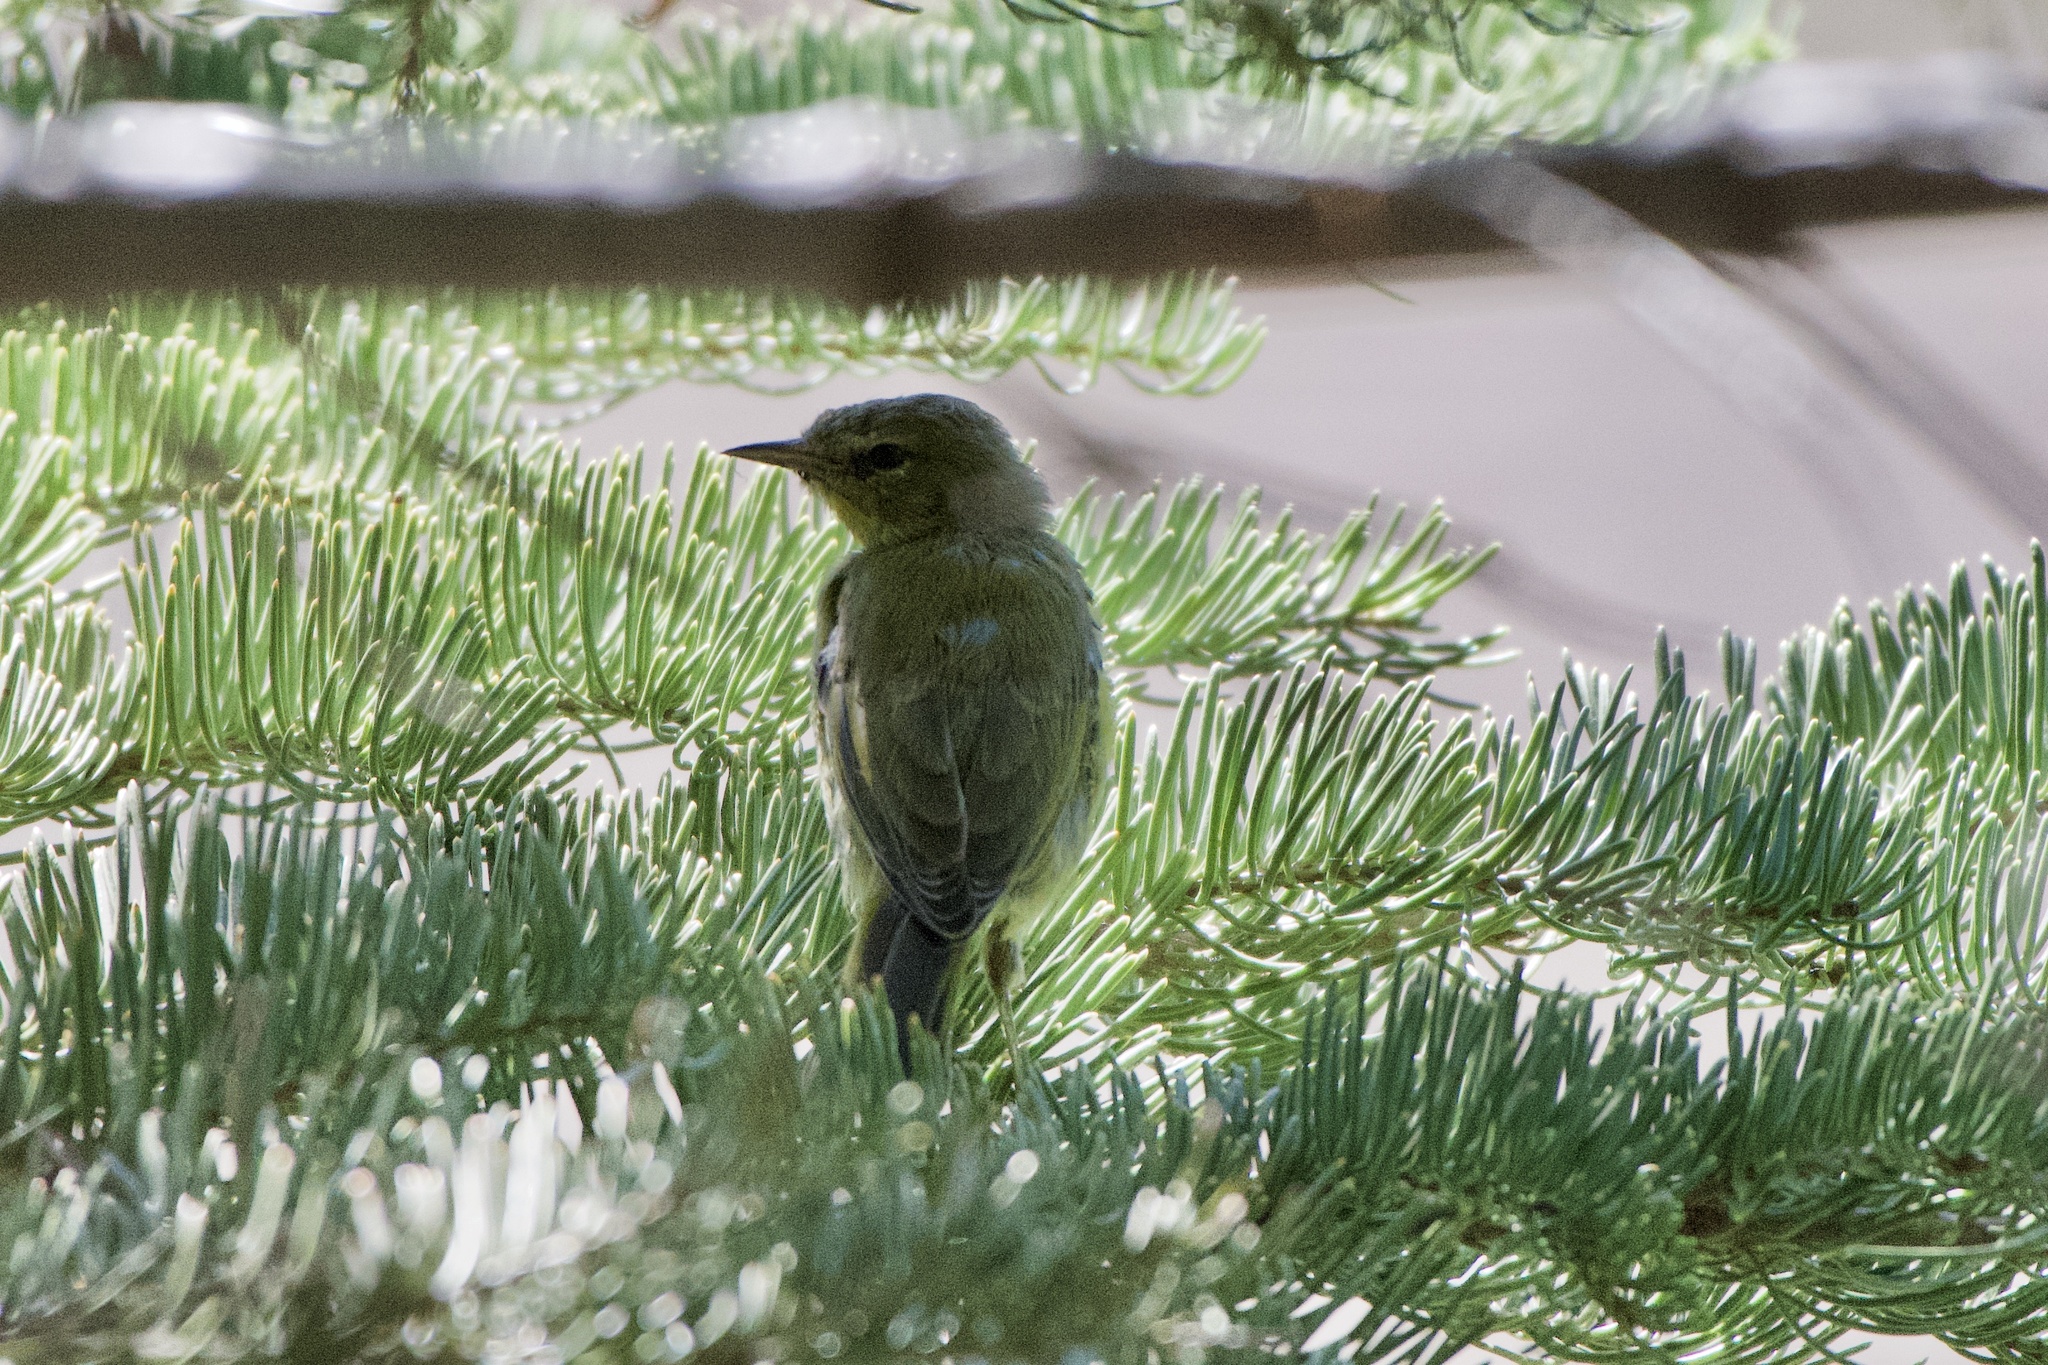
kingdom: Animalia
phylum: Chordata
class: Aves
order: Passeriformes
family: Parulidae
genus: Leiothlypis
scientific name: Leiothlypis celata
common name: Orange-crowned warbler
